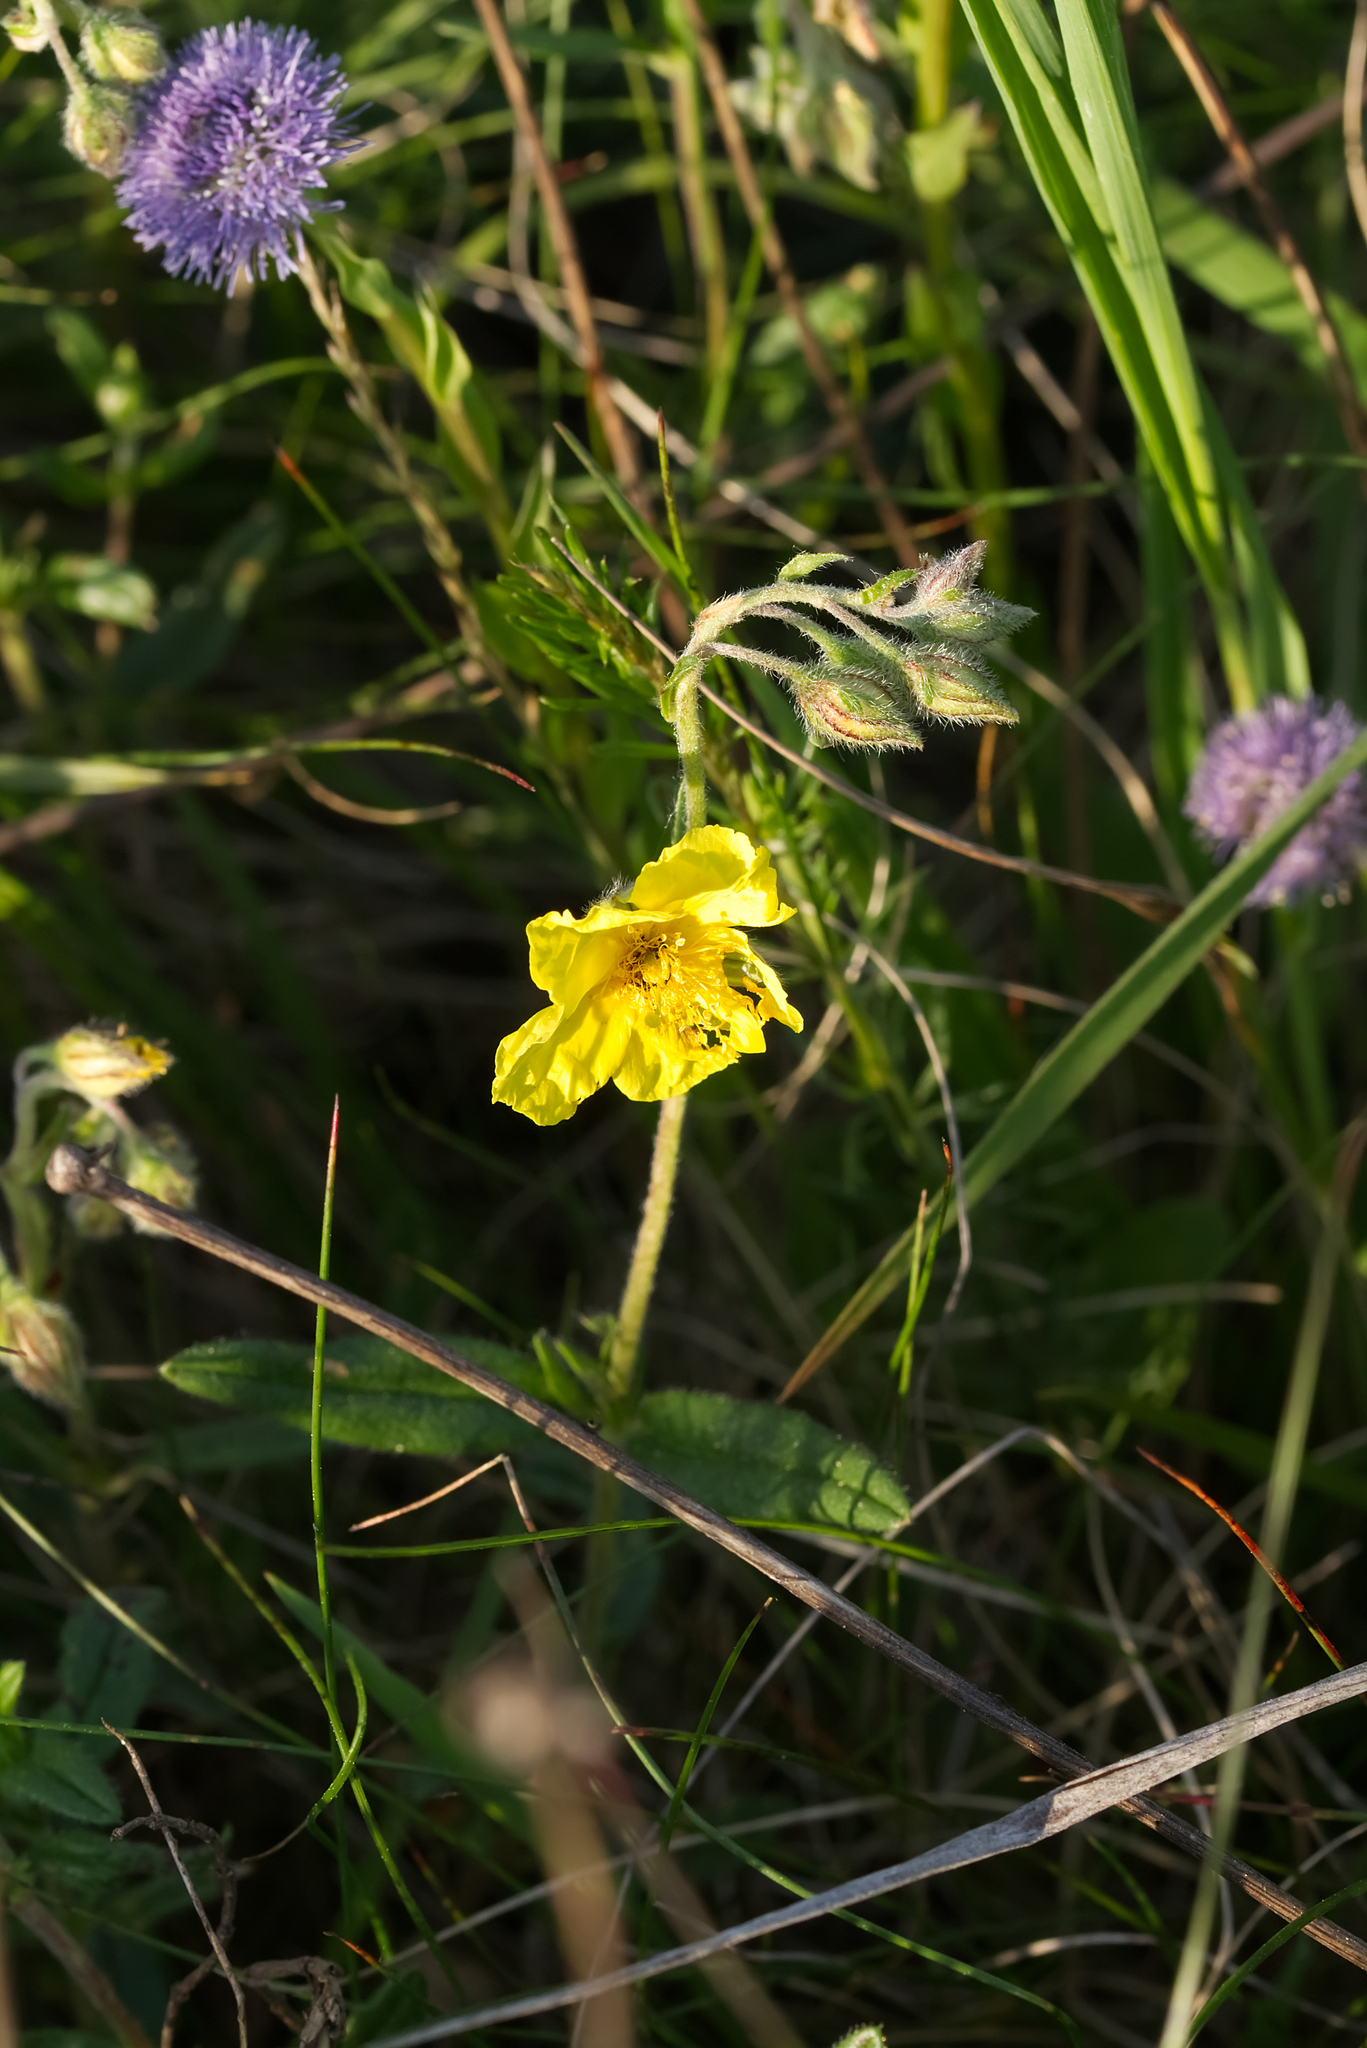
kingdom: Plantae
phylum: Tracheophyta
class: Magnoliopsida
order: Malvales
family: Cistaceae
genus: Helianthemum
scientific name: Helianthemum nummularium
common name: Common rock-rose
